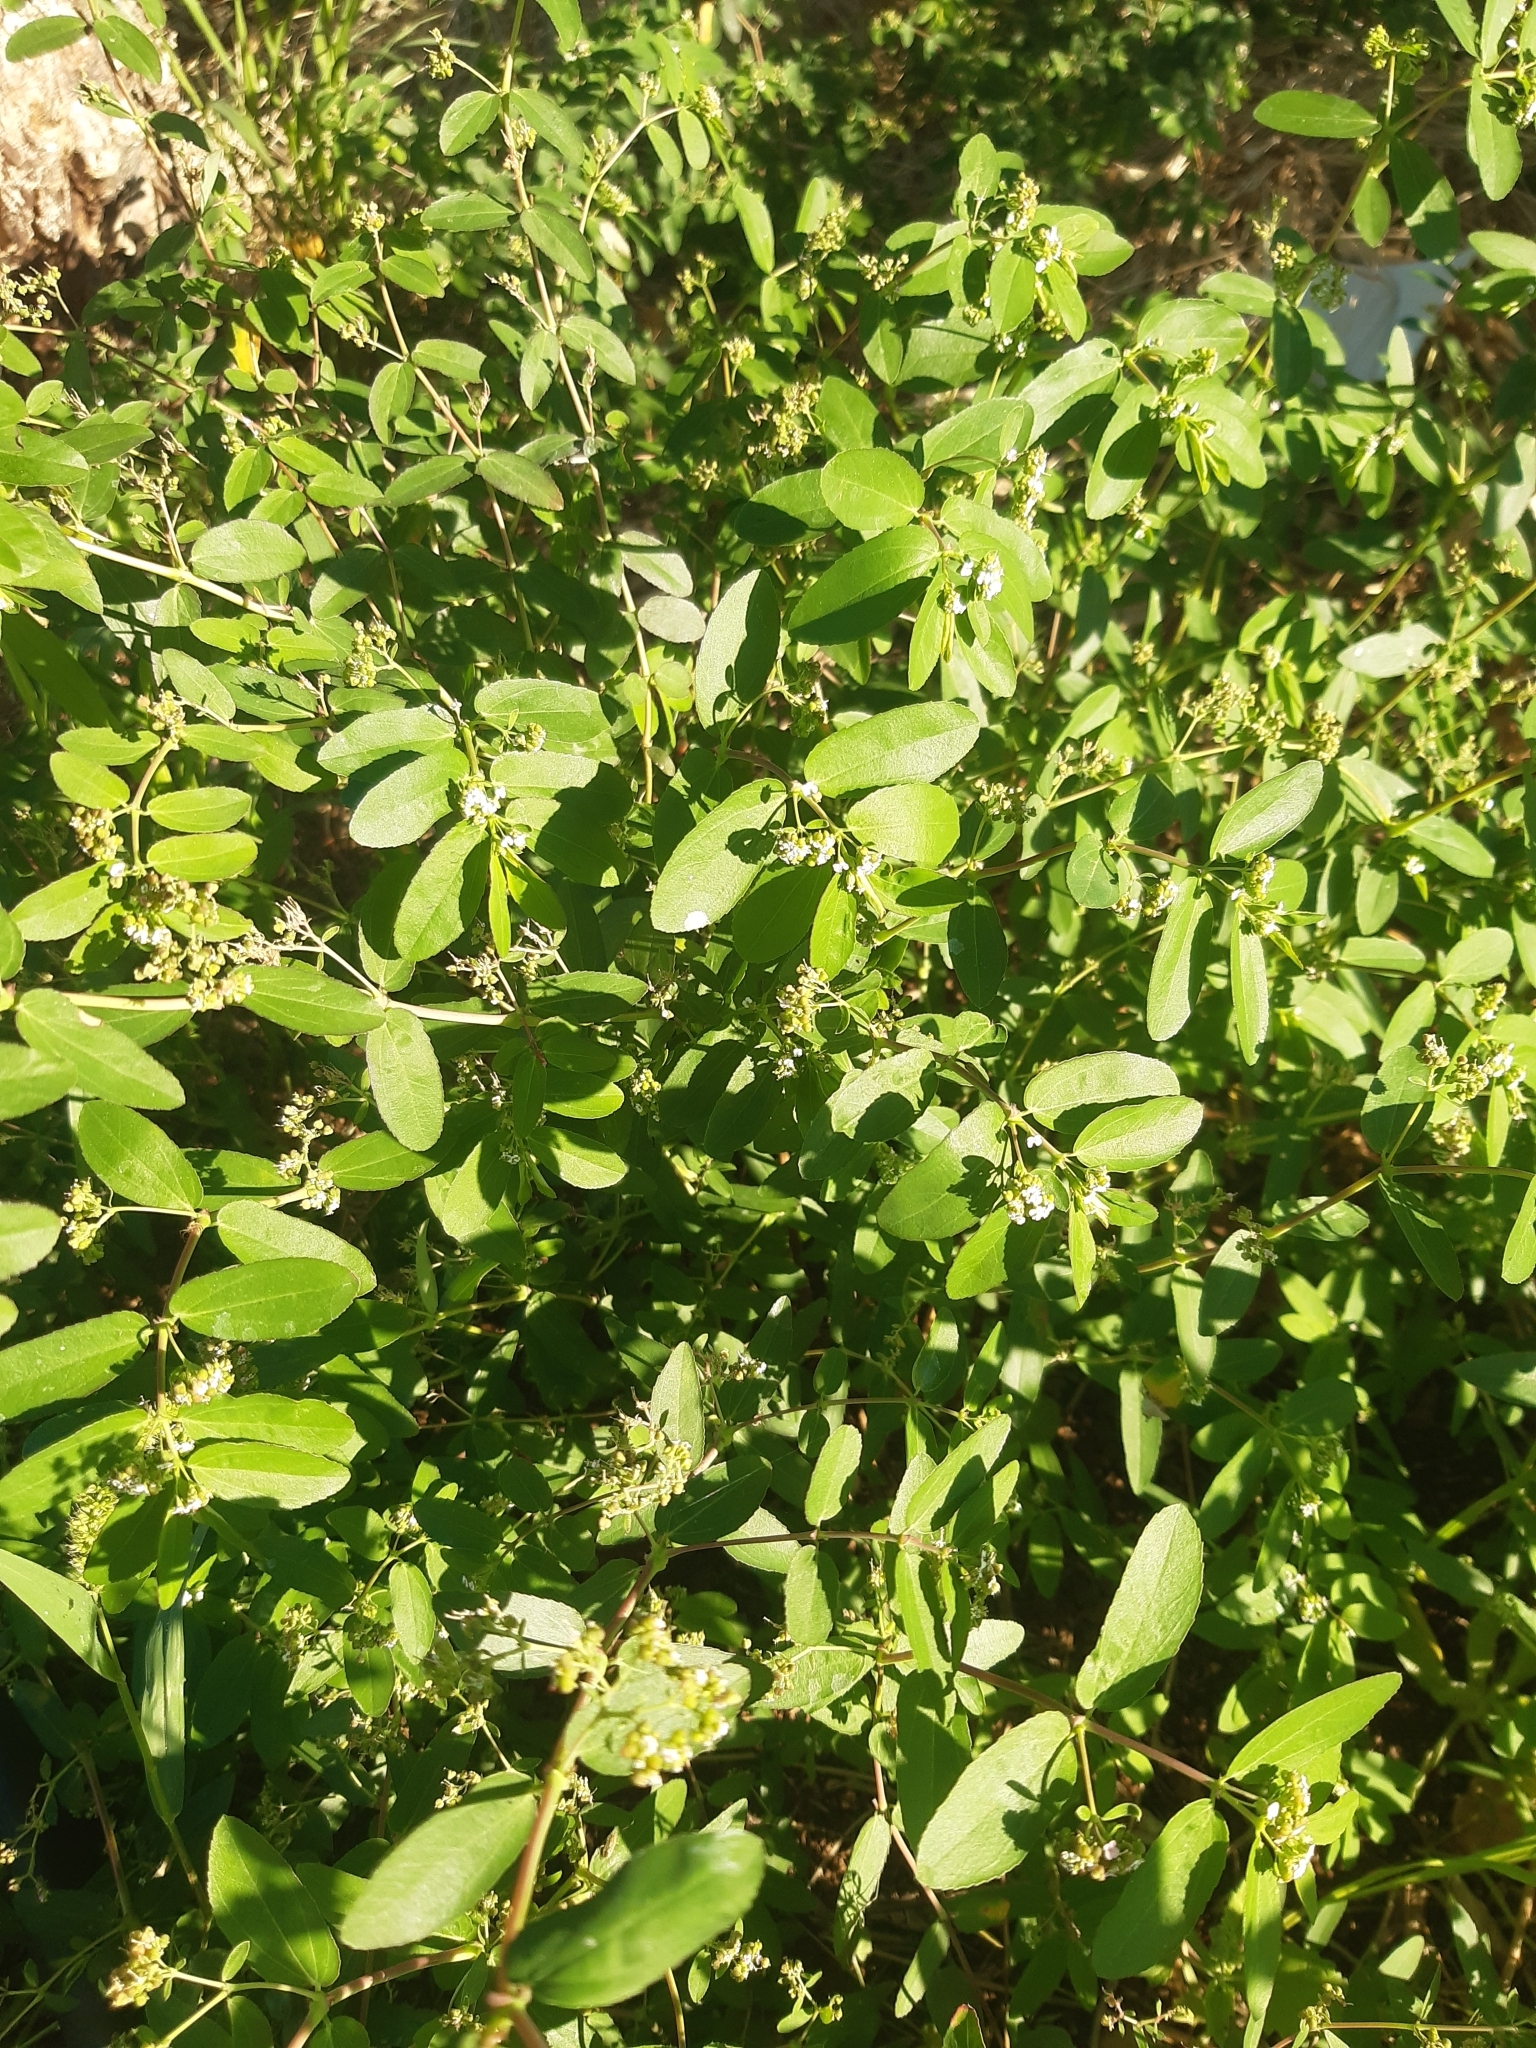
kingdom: Plantae
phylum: Tracheophyta
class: Magnoliopsida
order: Malpighiales
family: Euphorbiaceae
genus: Euphorbia
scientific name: Euphorbia hypericifolia
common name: Graceful sandmat
